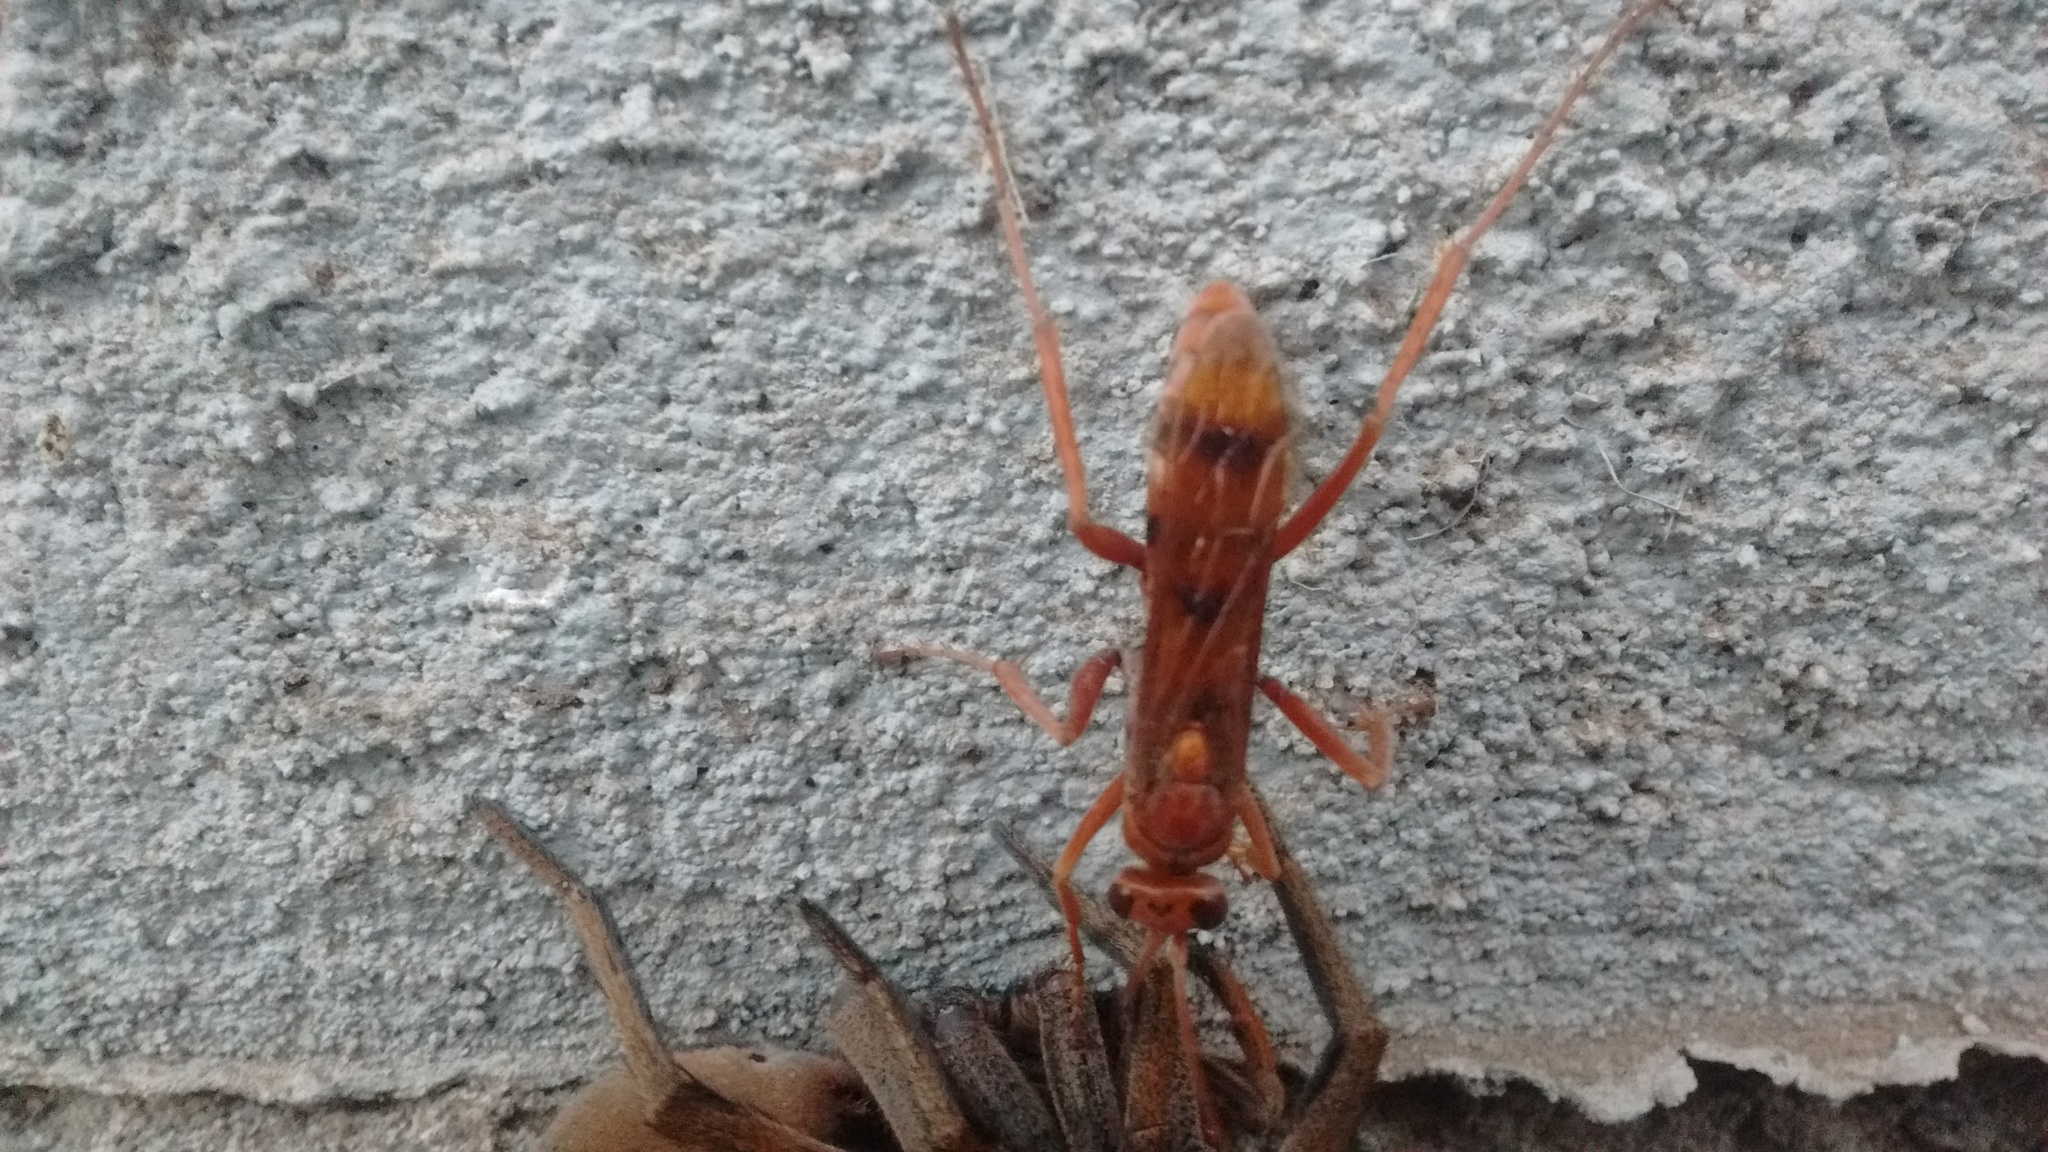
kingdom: Animalia
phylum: Arthropoda
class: Insecta
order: Hymenoptera
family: Pompilidae
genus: Tachypompilus
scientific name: Tachypompilus mendozae
